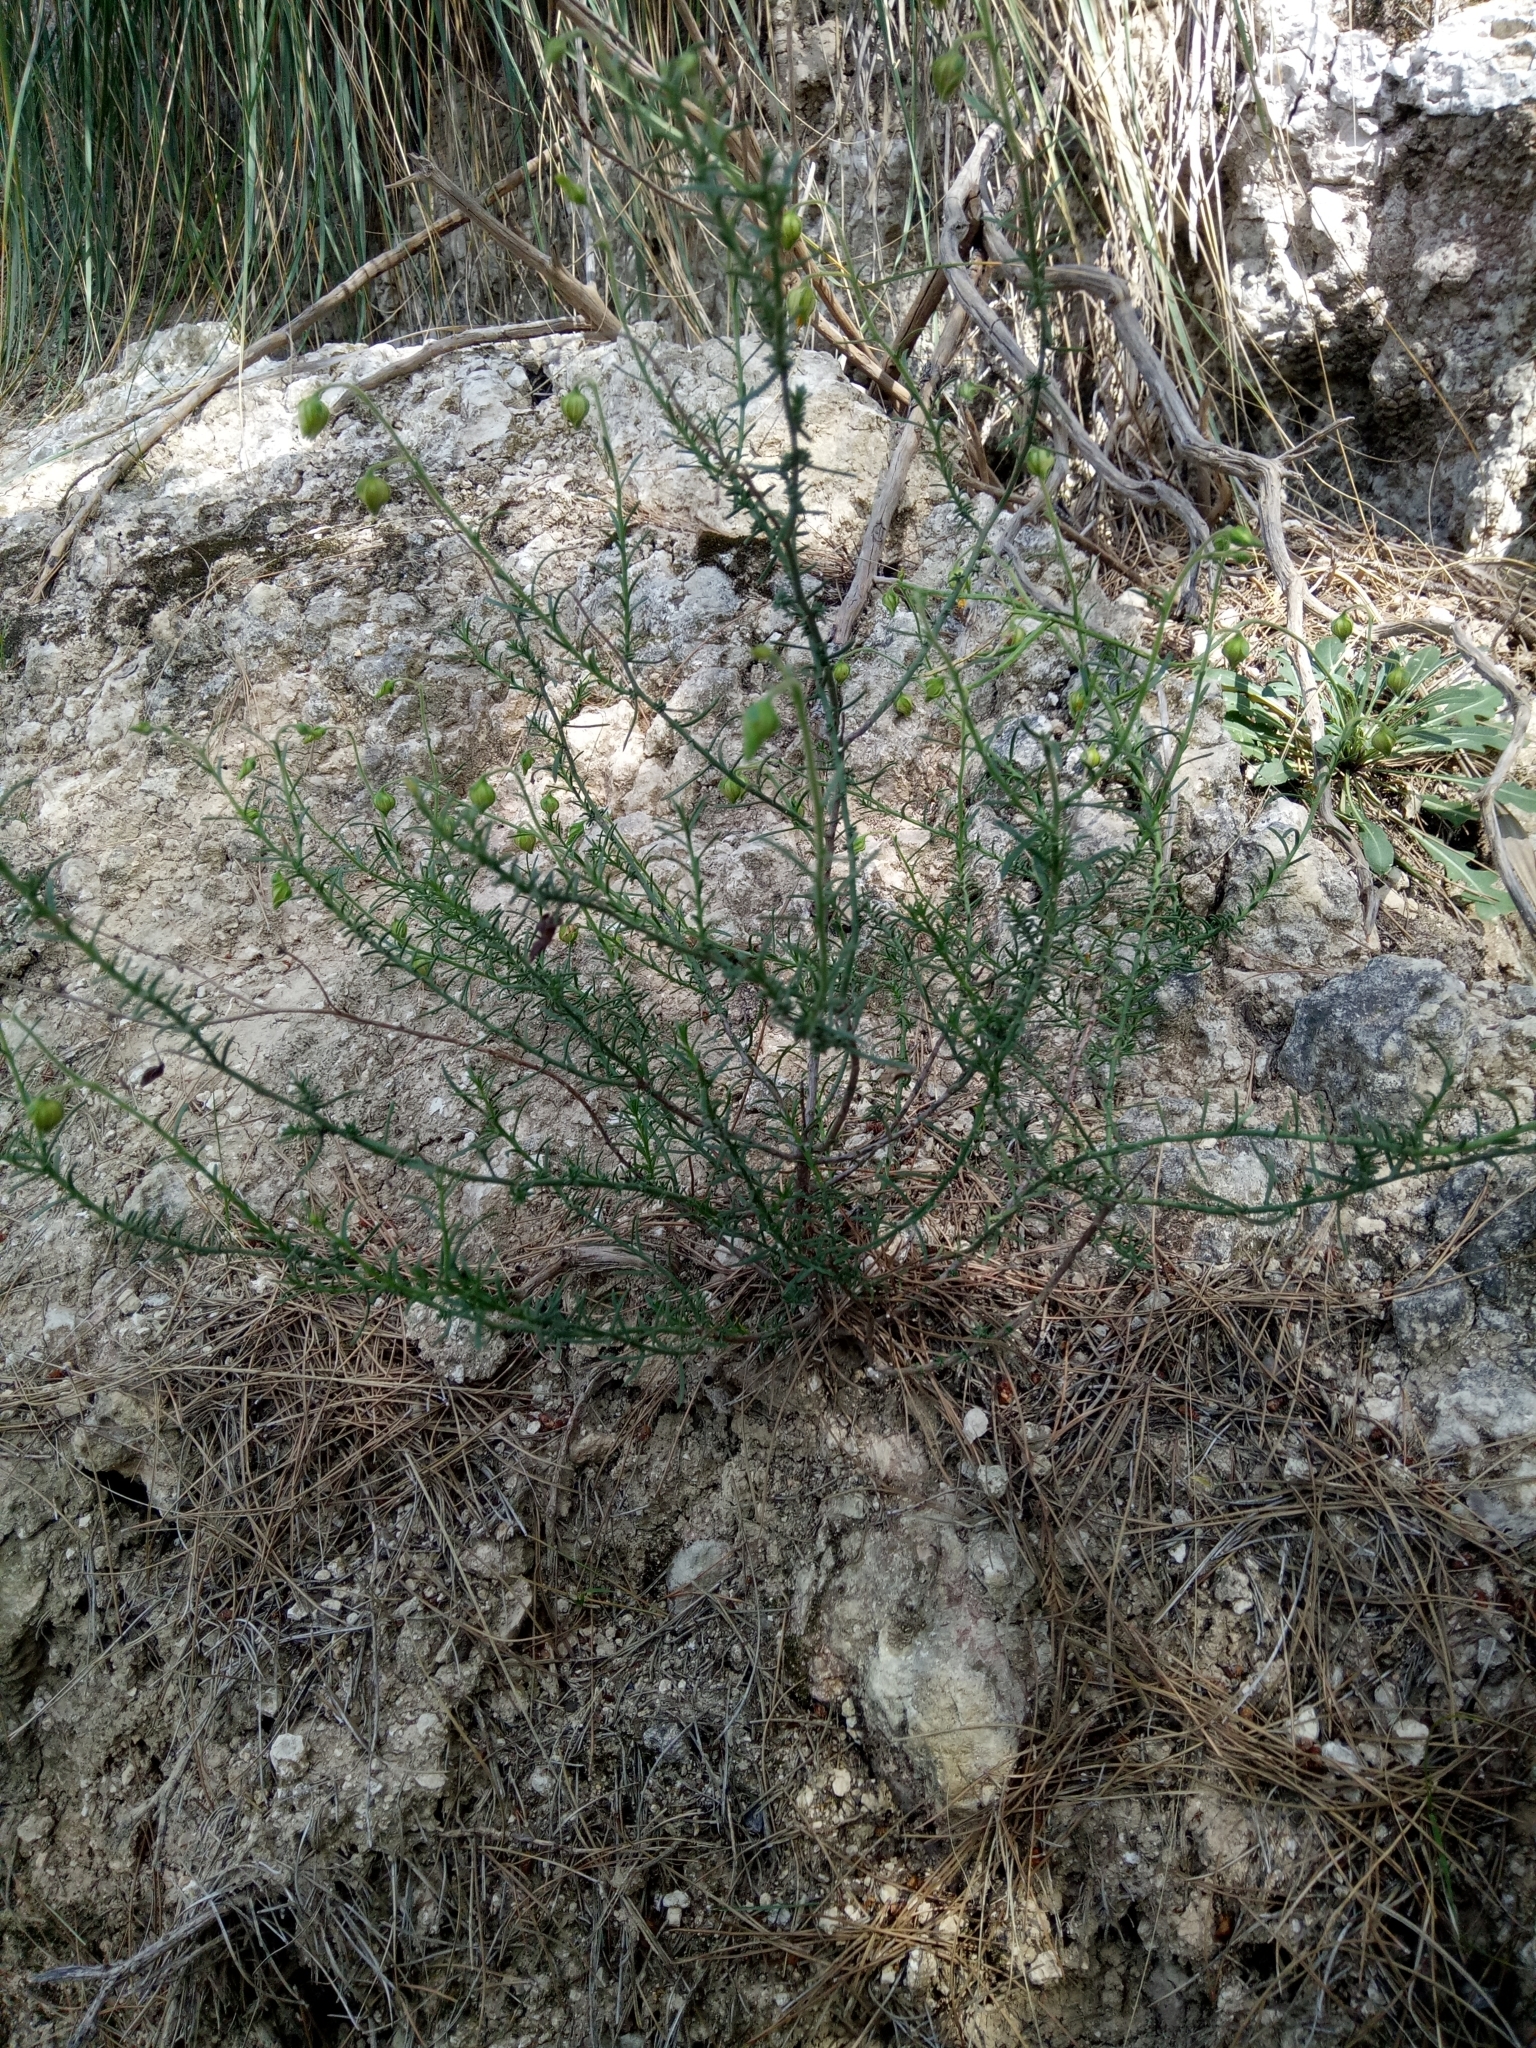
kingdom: Plantae
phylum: Tracheophyta
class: Magnoliopsida
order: Malvales
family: Cistaceae
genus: Fumana
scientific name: Fumana scoparia
